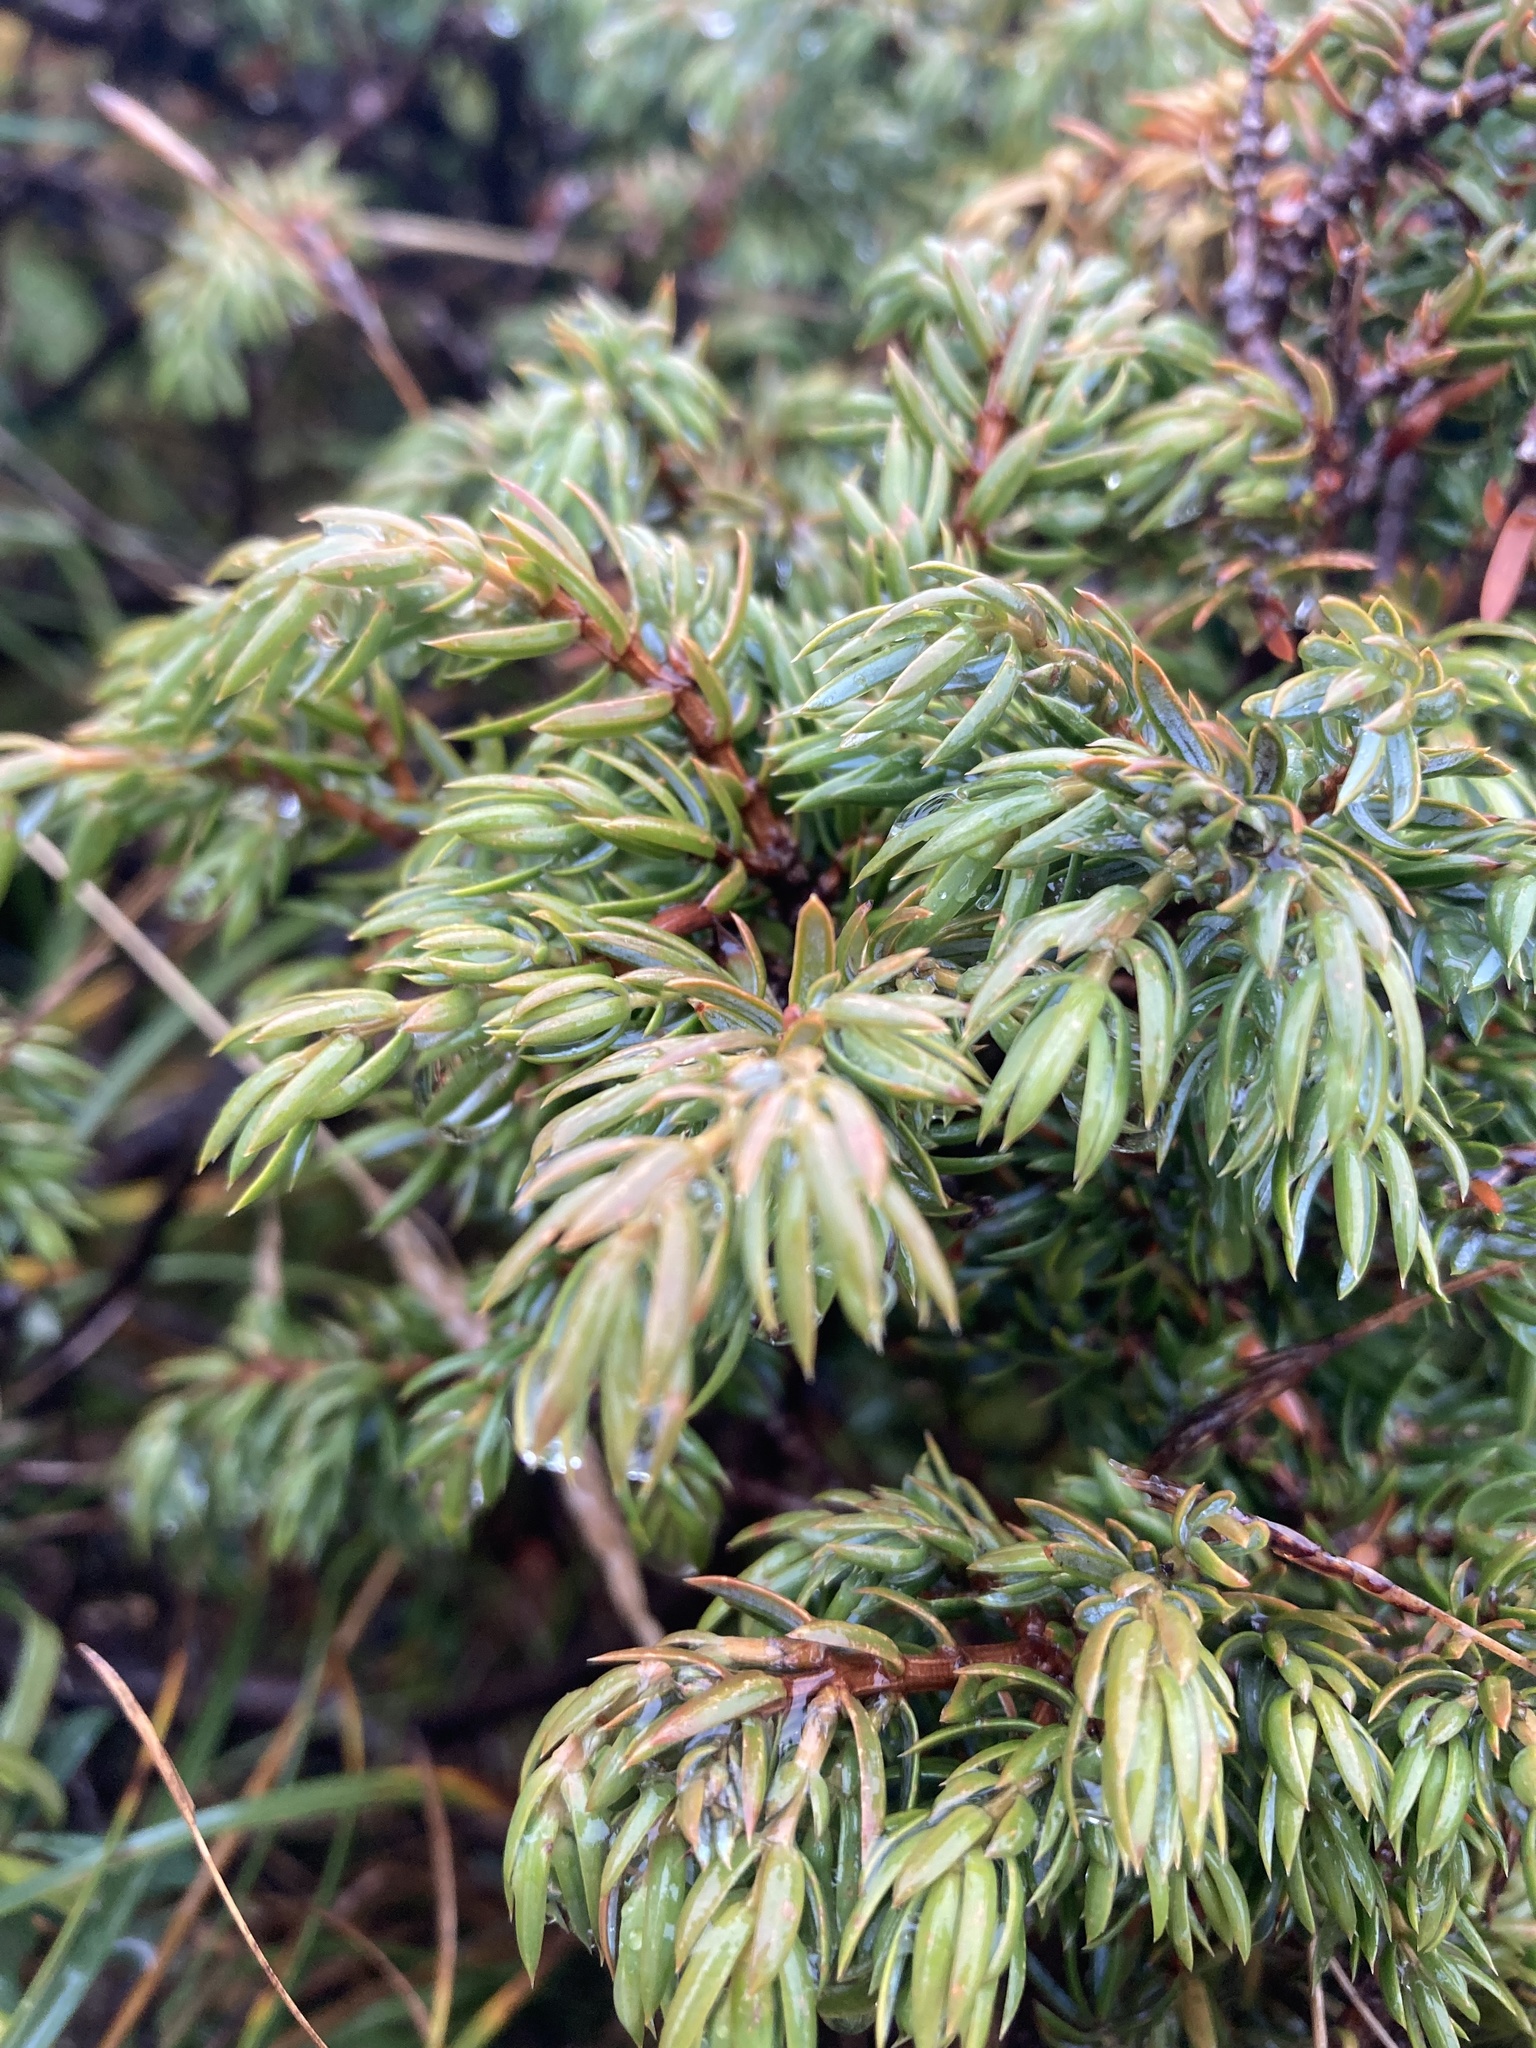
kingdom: Plantae
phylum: Tracheophyta
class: Pinopsida
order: Pinales
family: Cupressaceae
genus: Juniperus
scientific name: Juniperus communis
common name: Common juniper
